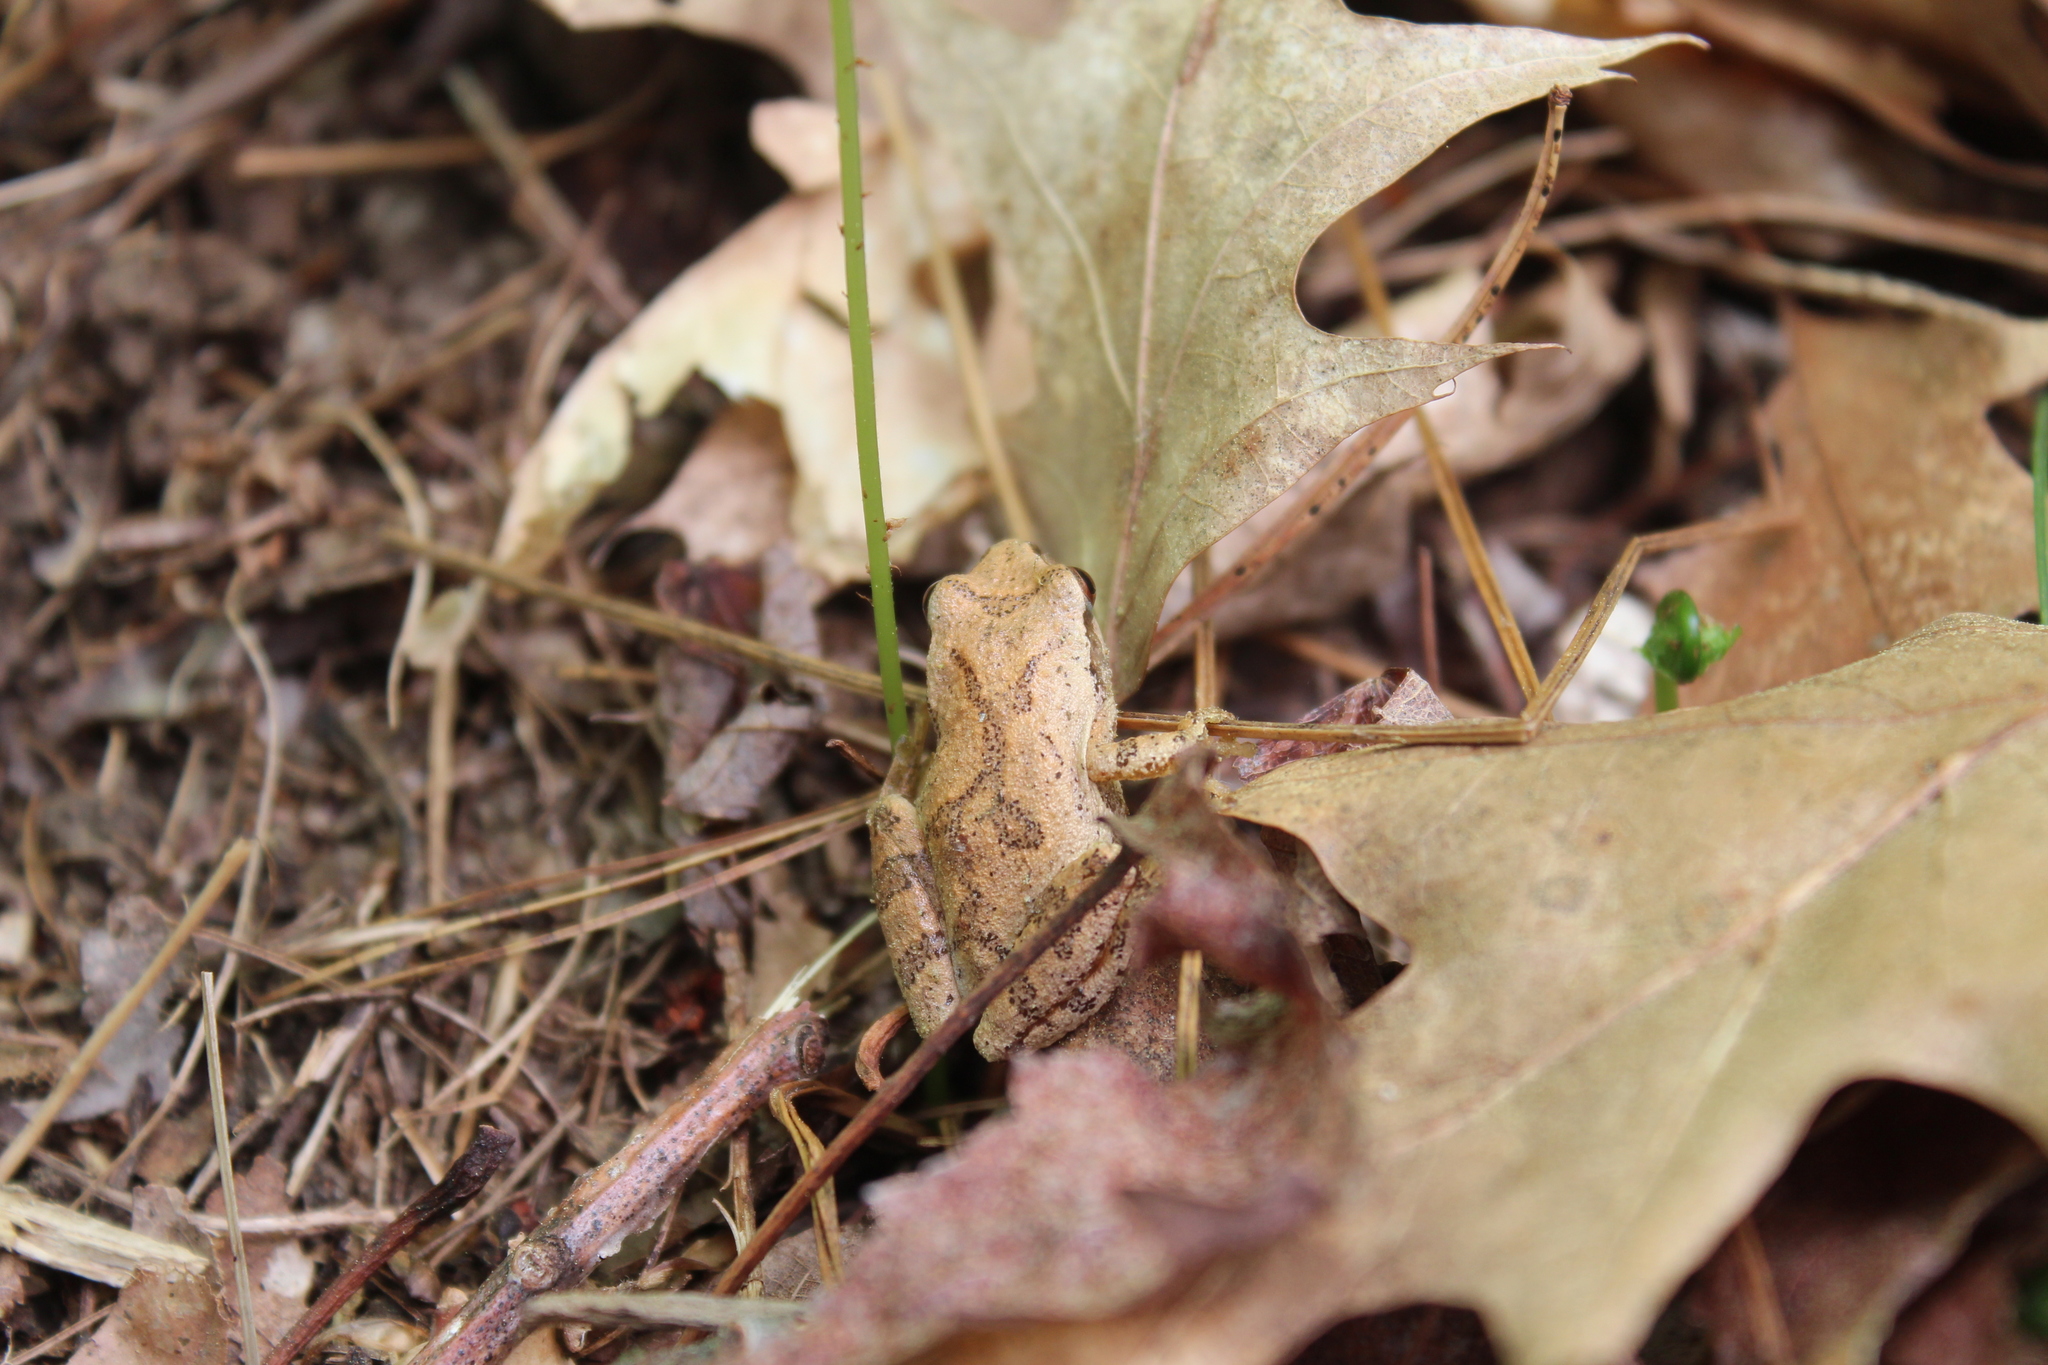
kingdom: Animalia
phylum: Chordata
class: Amphibia
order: Anura
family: Hylidae
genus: Pseudacris
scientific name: Pseudacris crucifer
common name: Spring peeper
